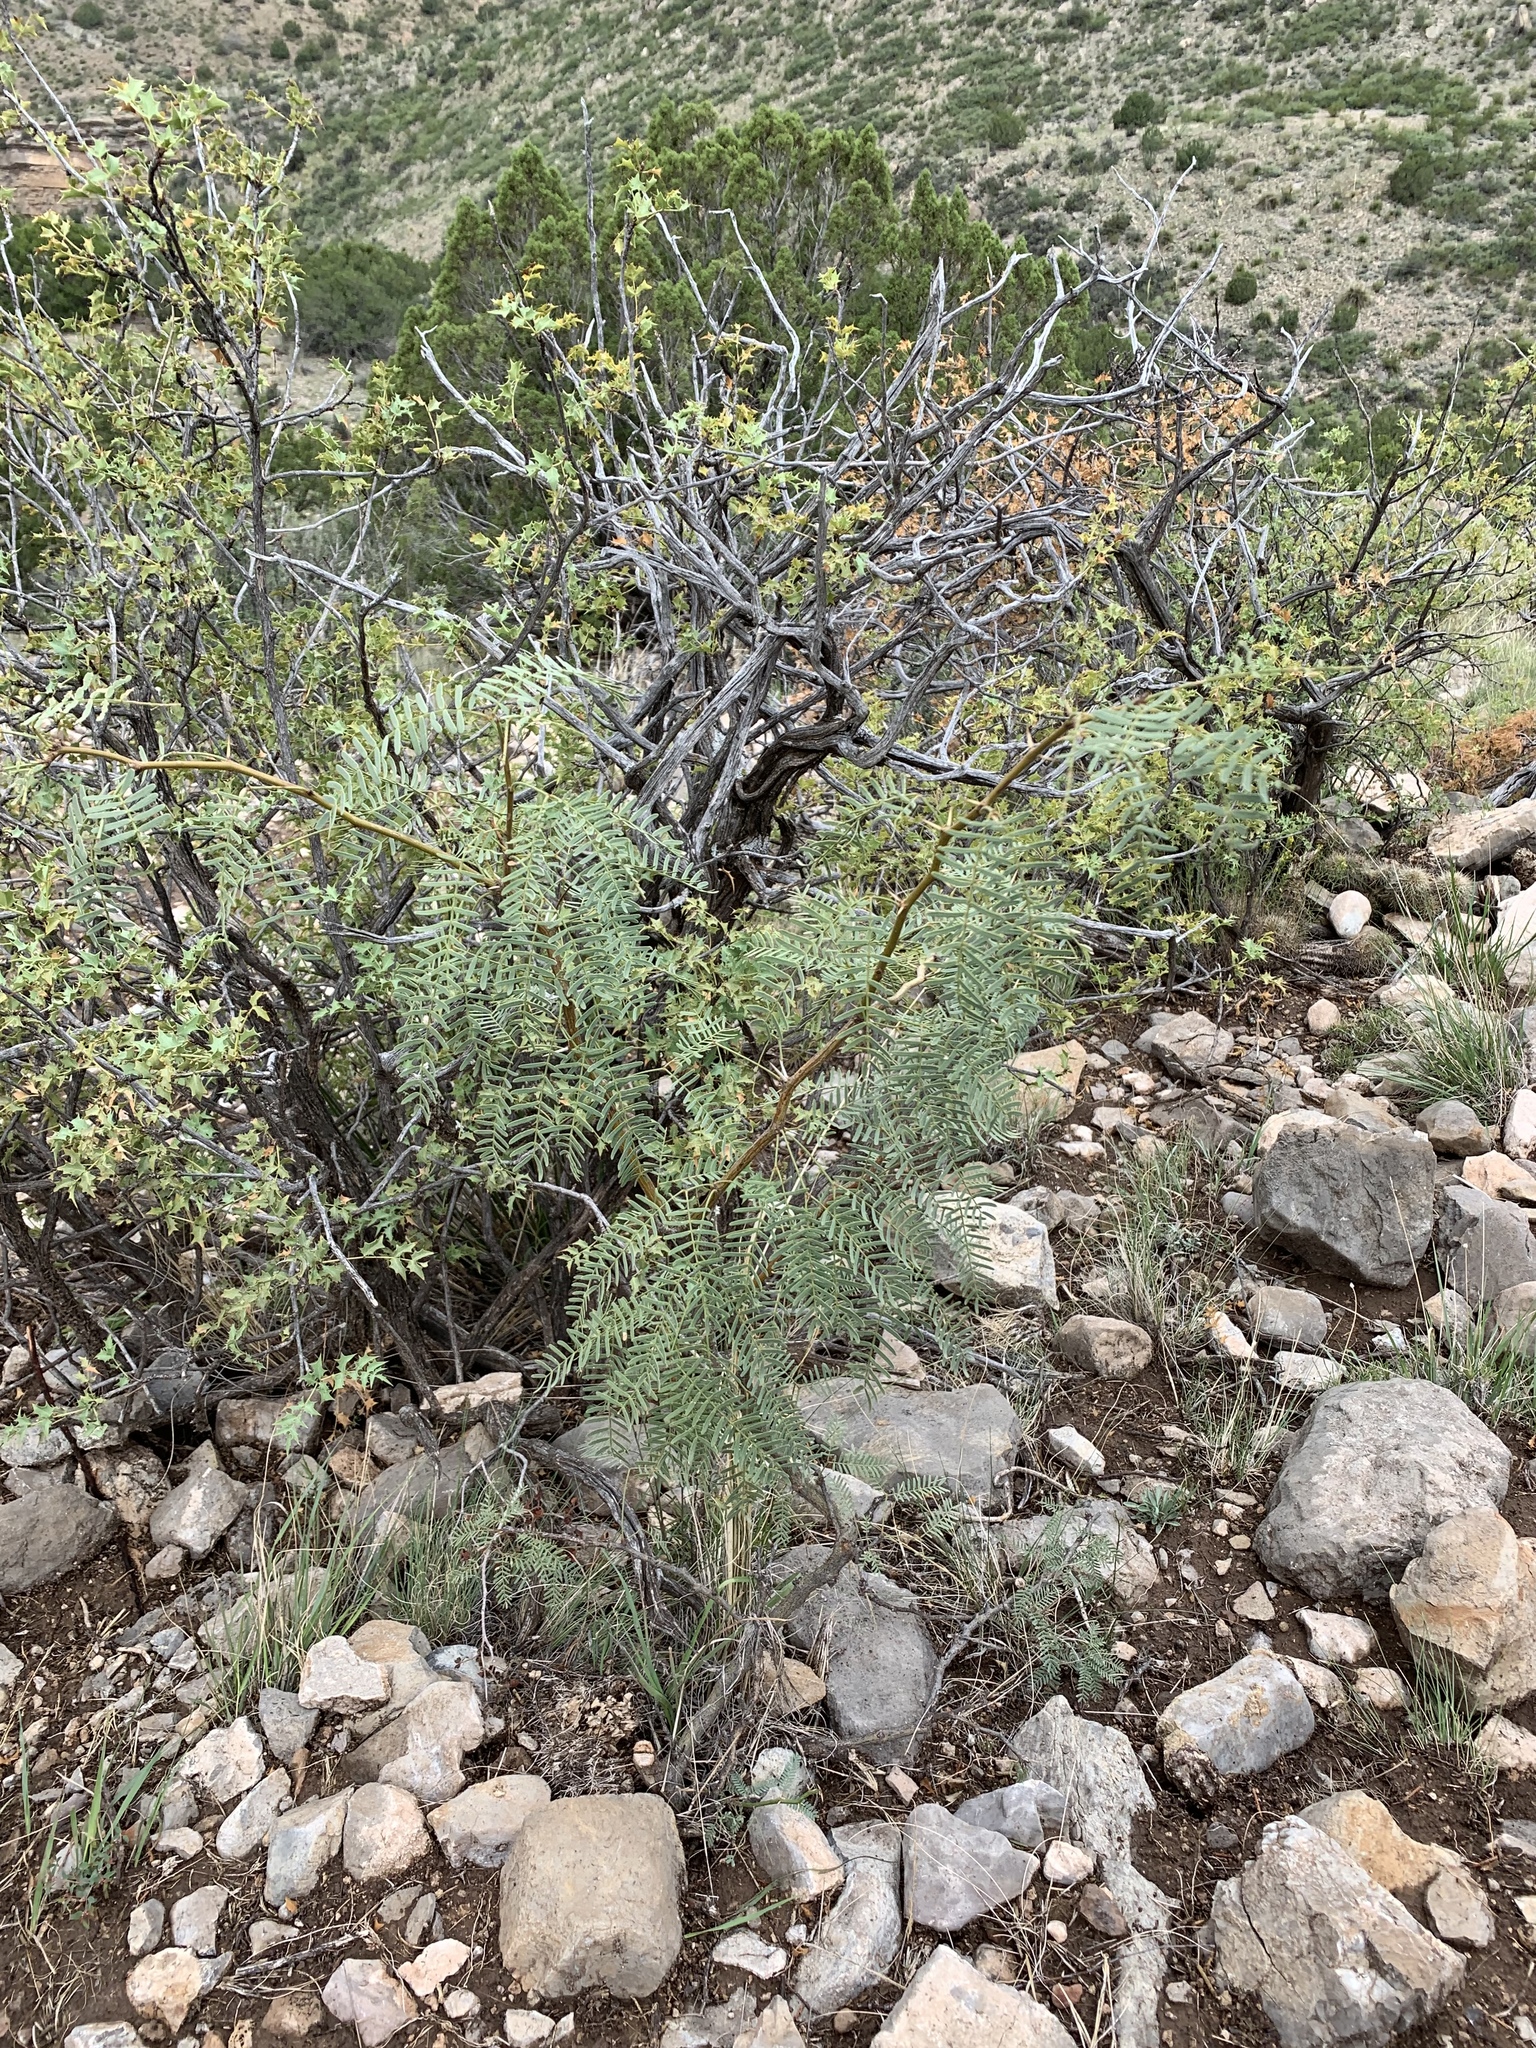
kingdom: Plantae
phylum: Tracheophyta
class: Magnoliopsida
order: Fabales
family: Fabaceae
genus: Prosopis
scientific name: Prosopis glandulosa
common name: Honey mesquite
